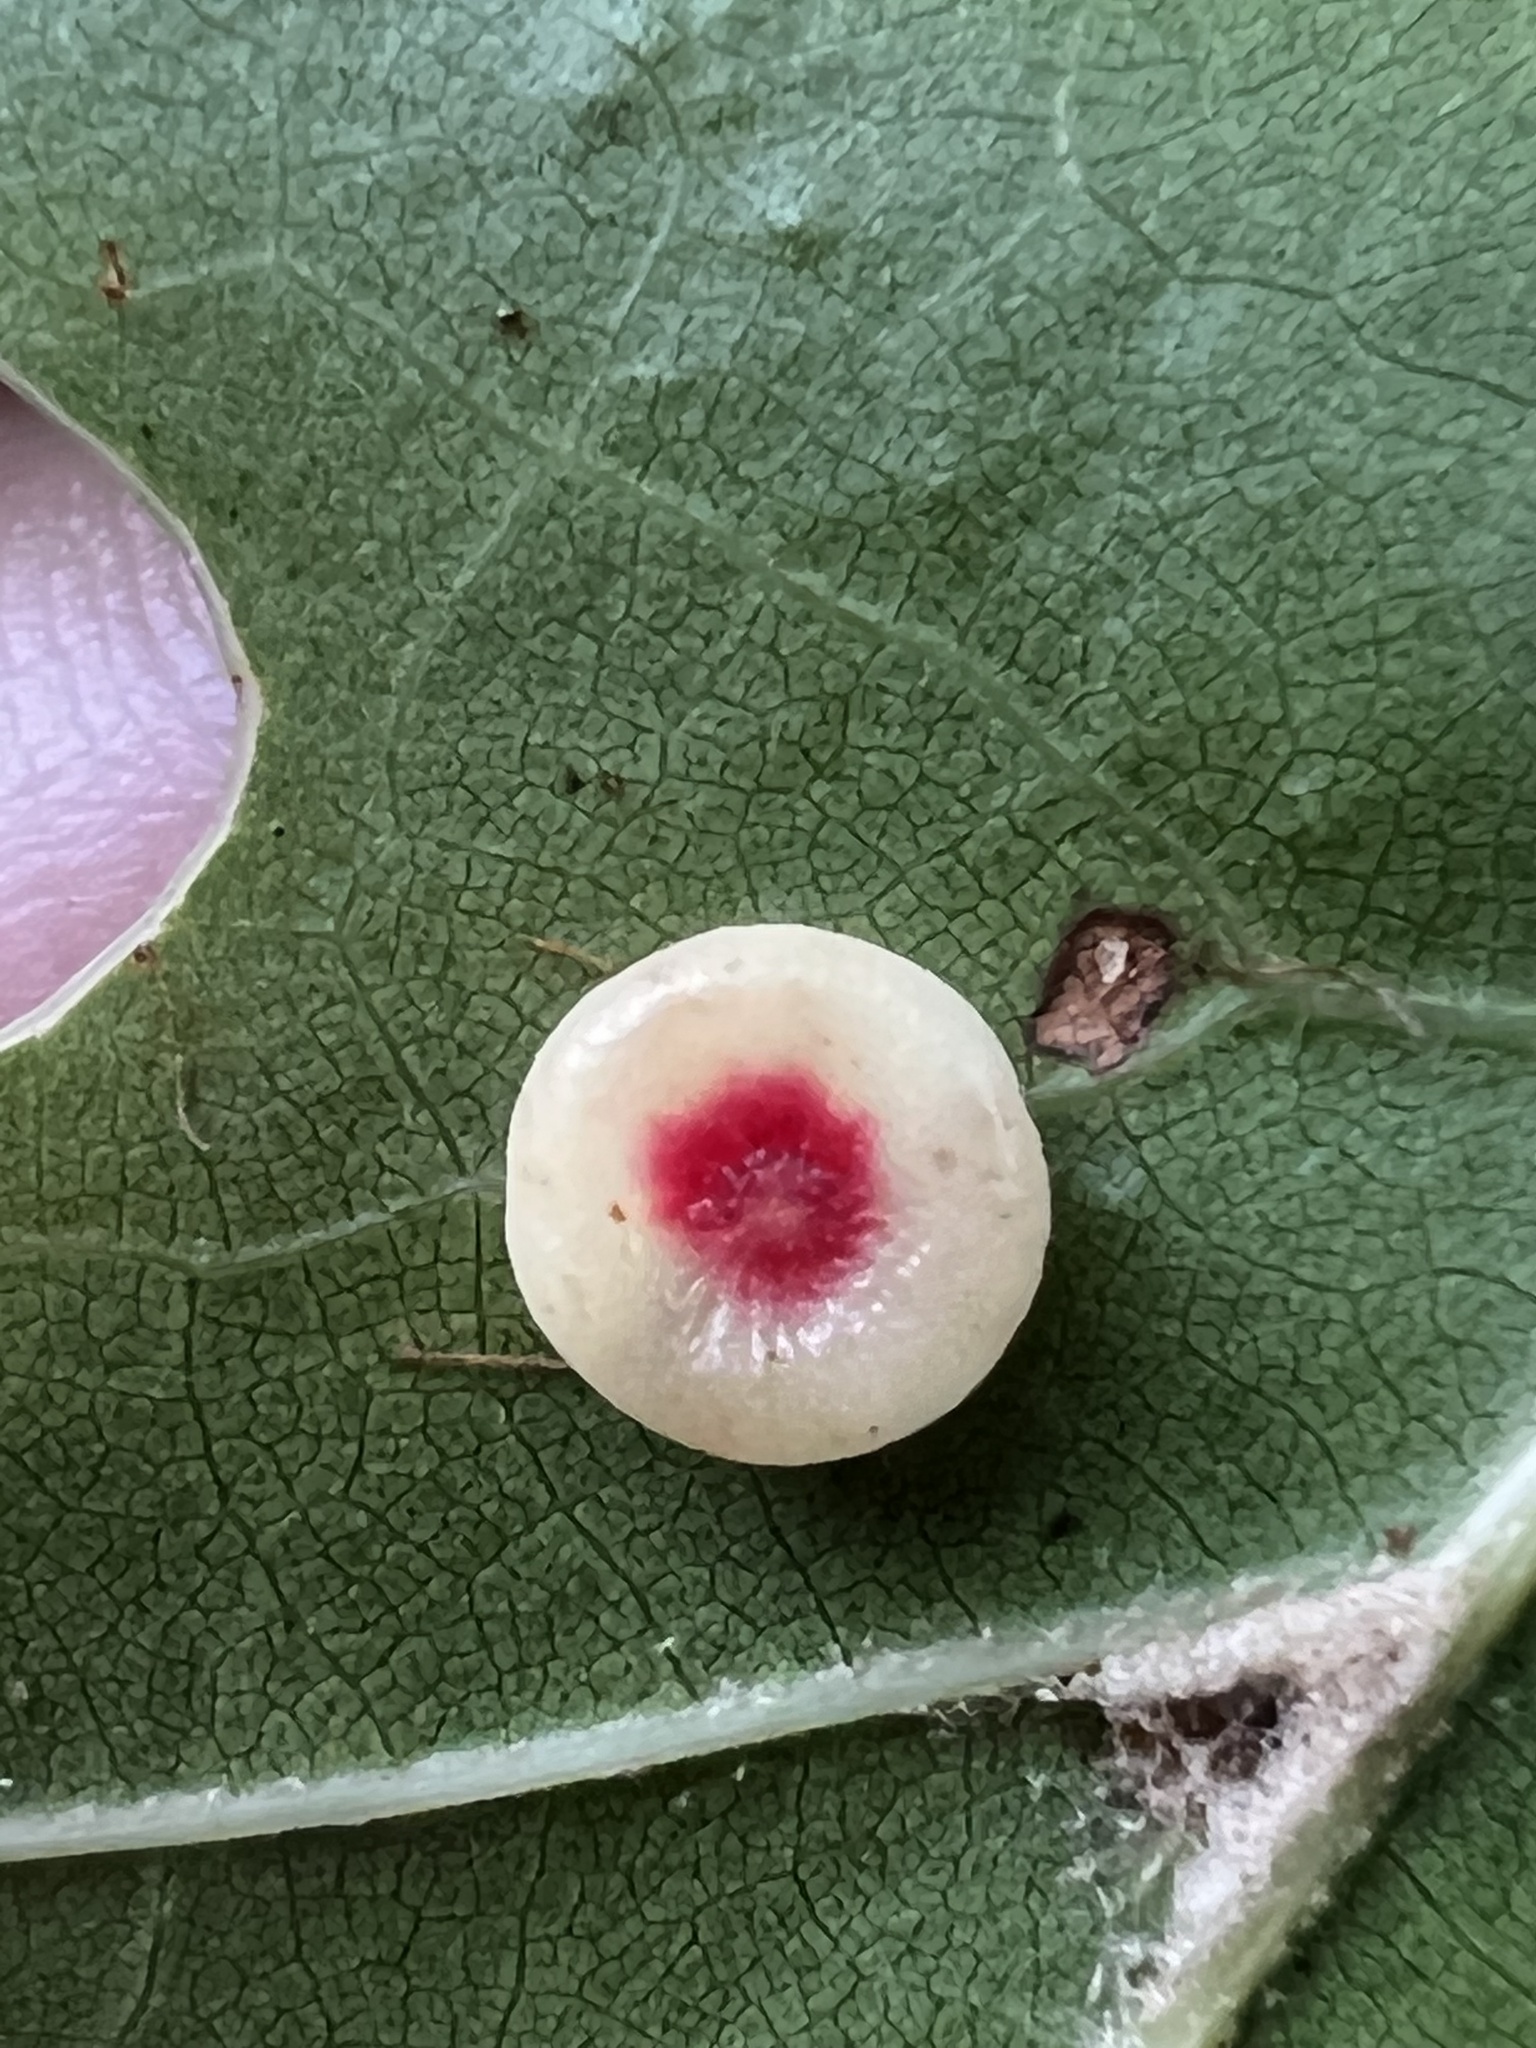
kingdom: Animalia
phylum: Arthropoda
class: Insecta
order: Hymenoptera
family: Cynipidae
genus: Dryocosmus
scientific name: Dryocosmus
